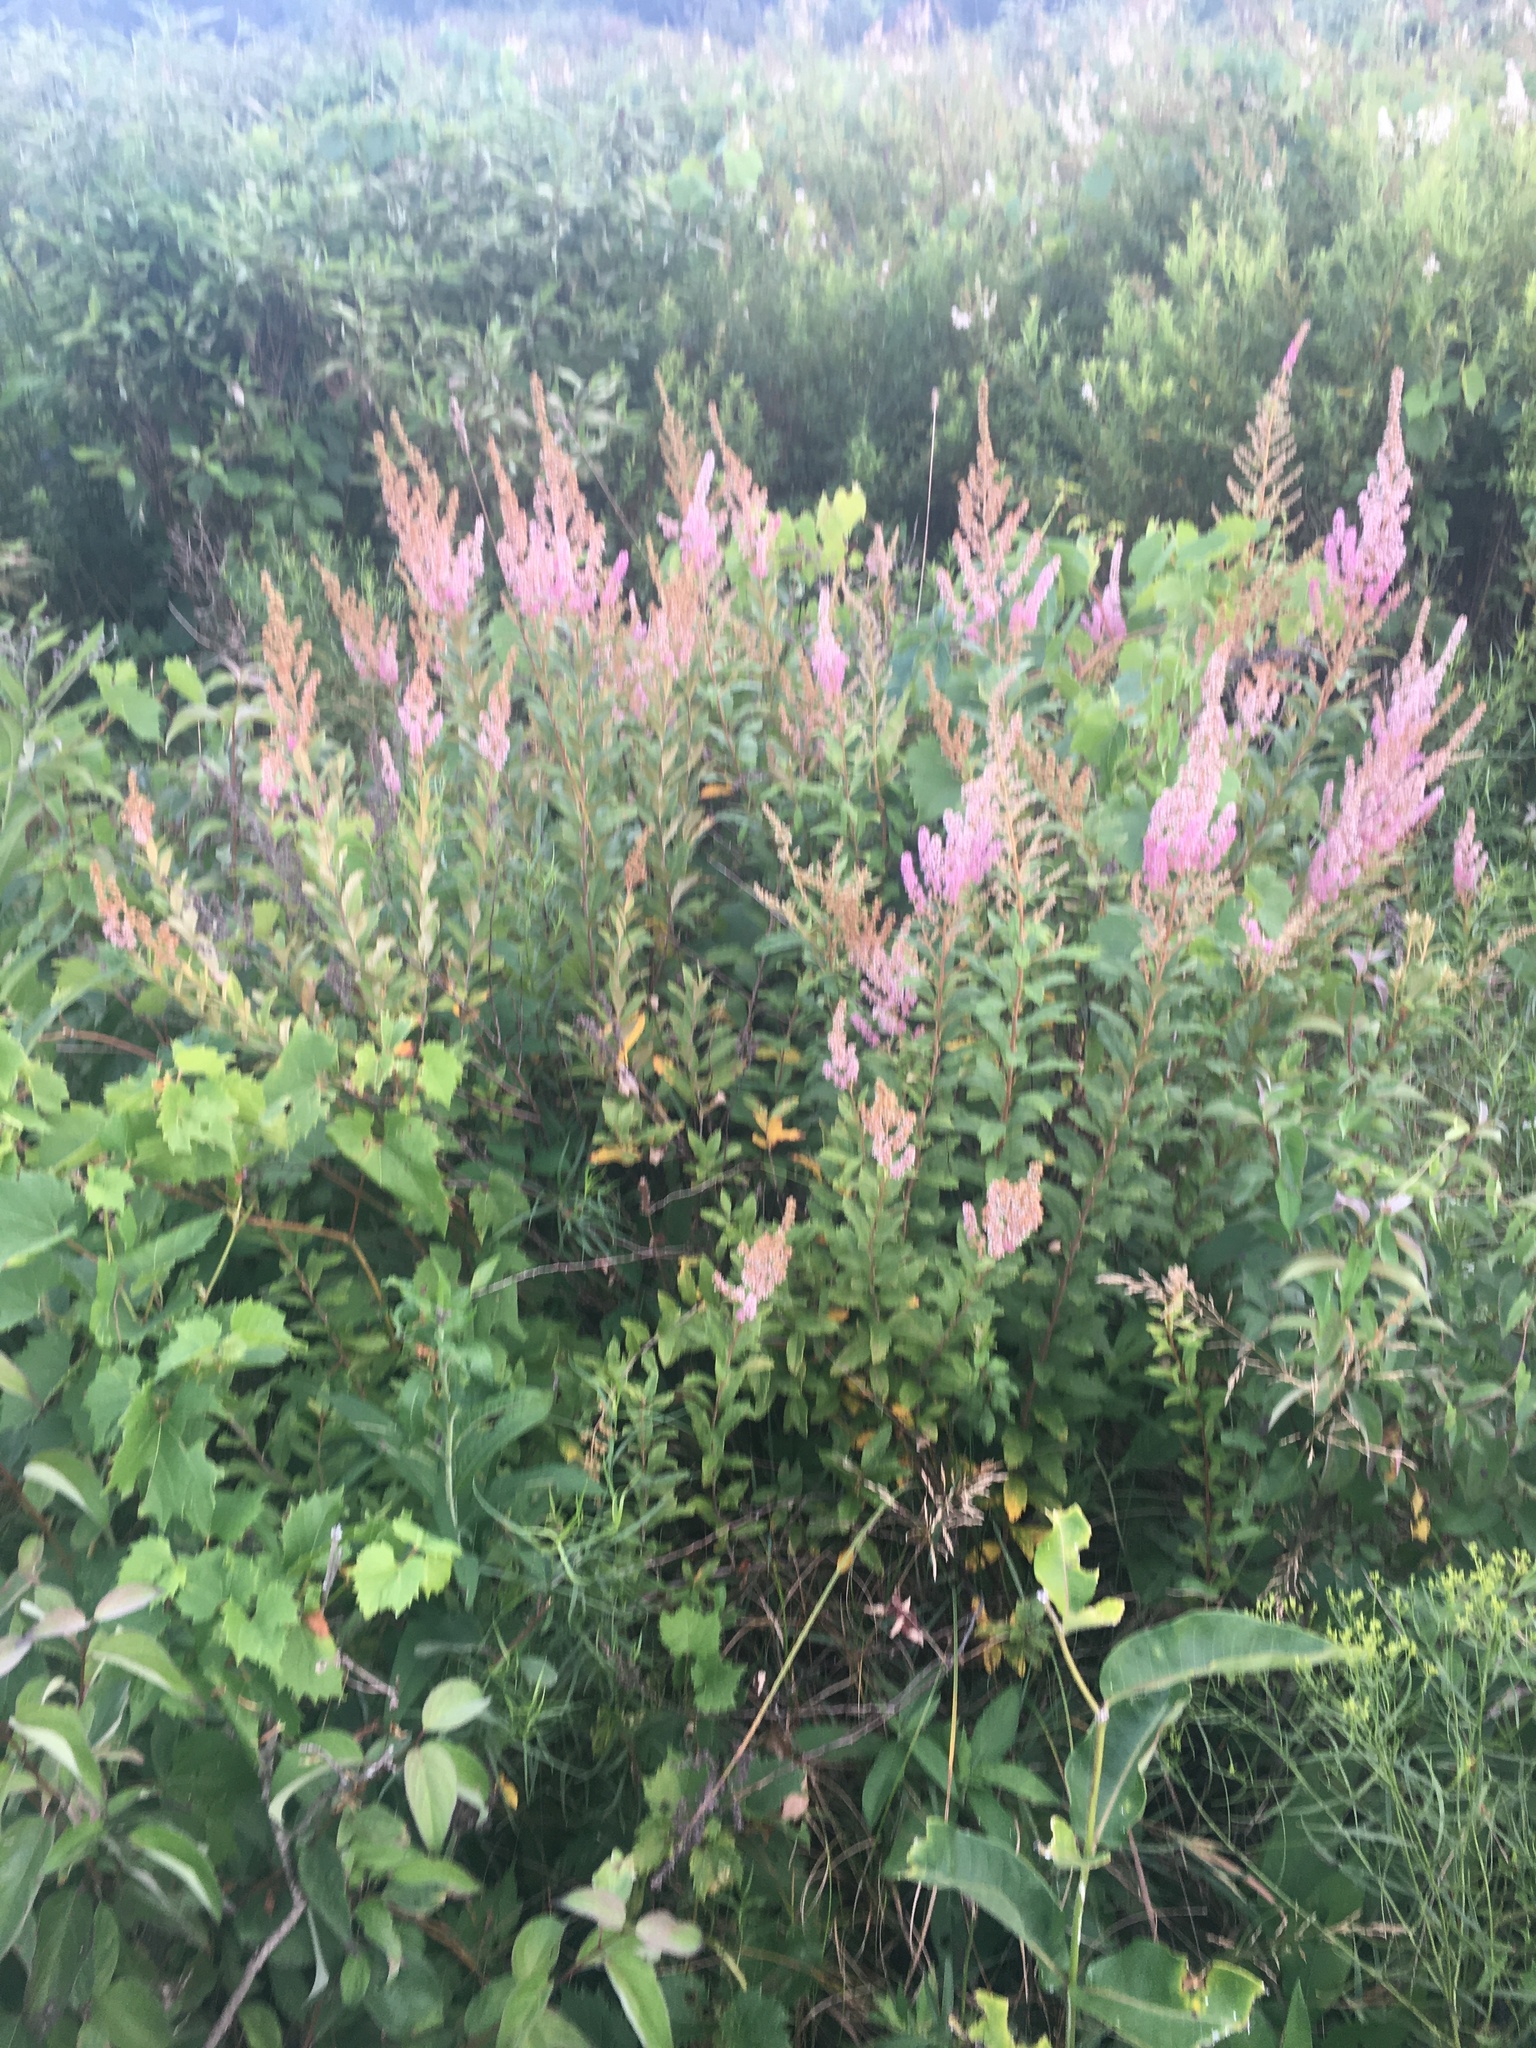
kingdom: Plantae
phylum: Tracheophyta
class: Magnoliopsida
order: Rosales
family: Rosaceae
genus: Spiraea
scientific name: Spiraea tomentosa
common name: Hardhack
